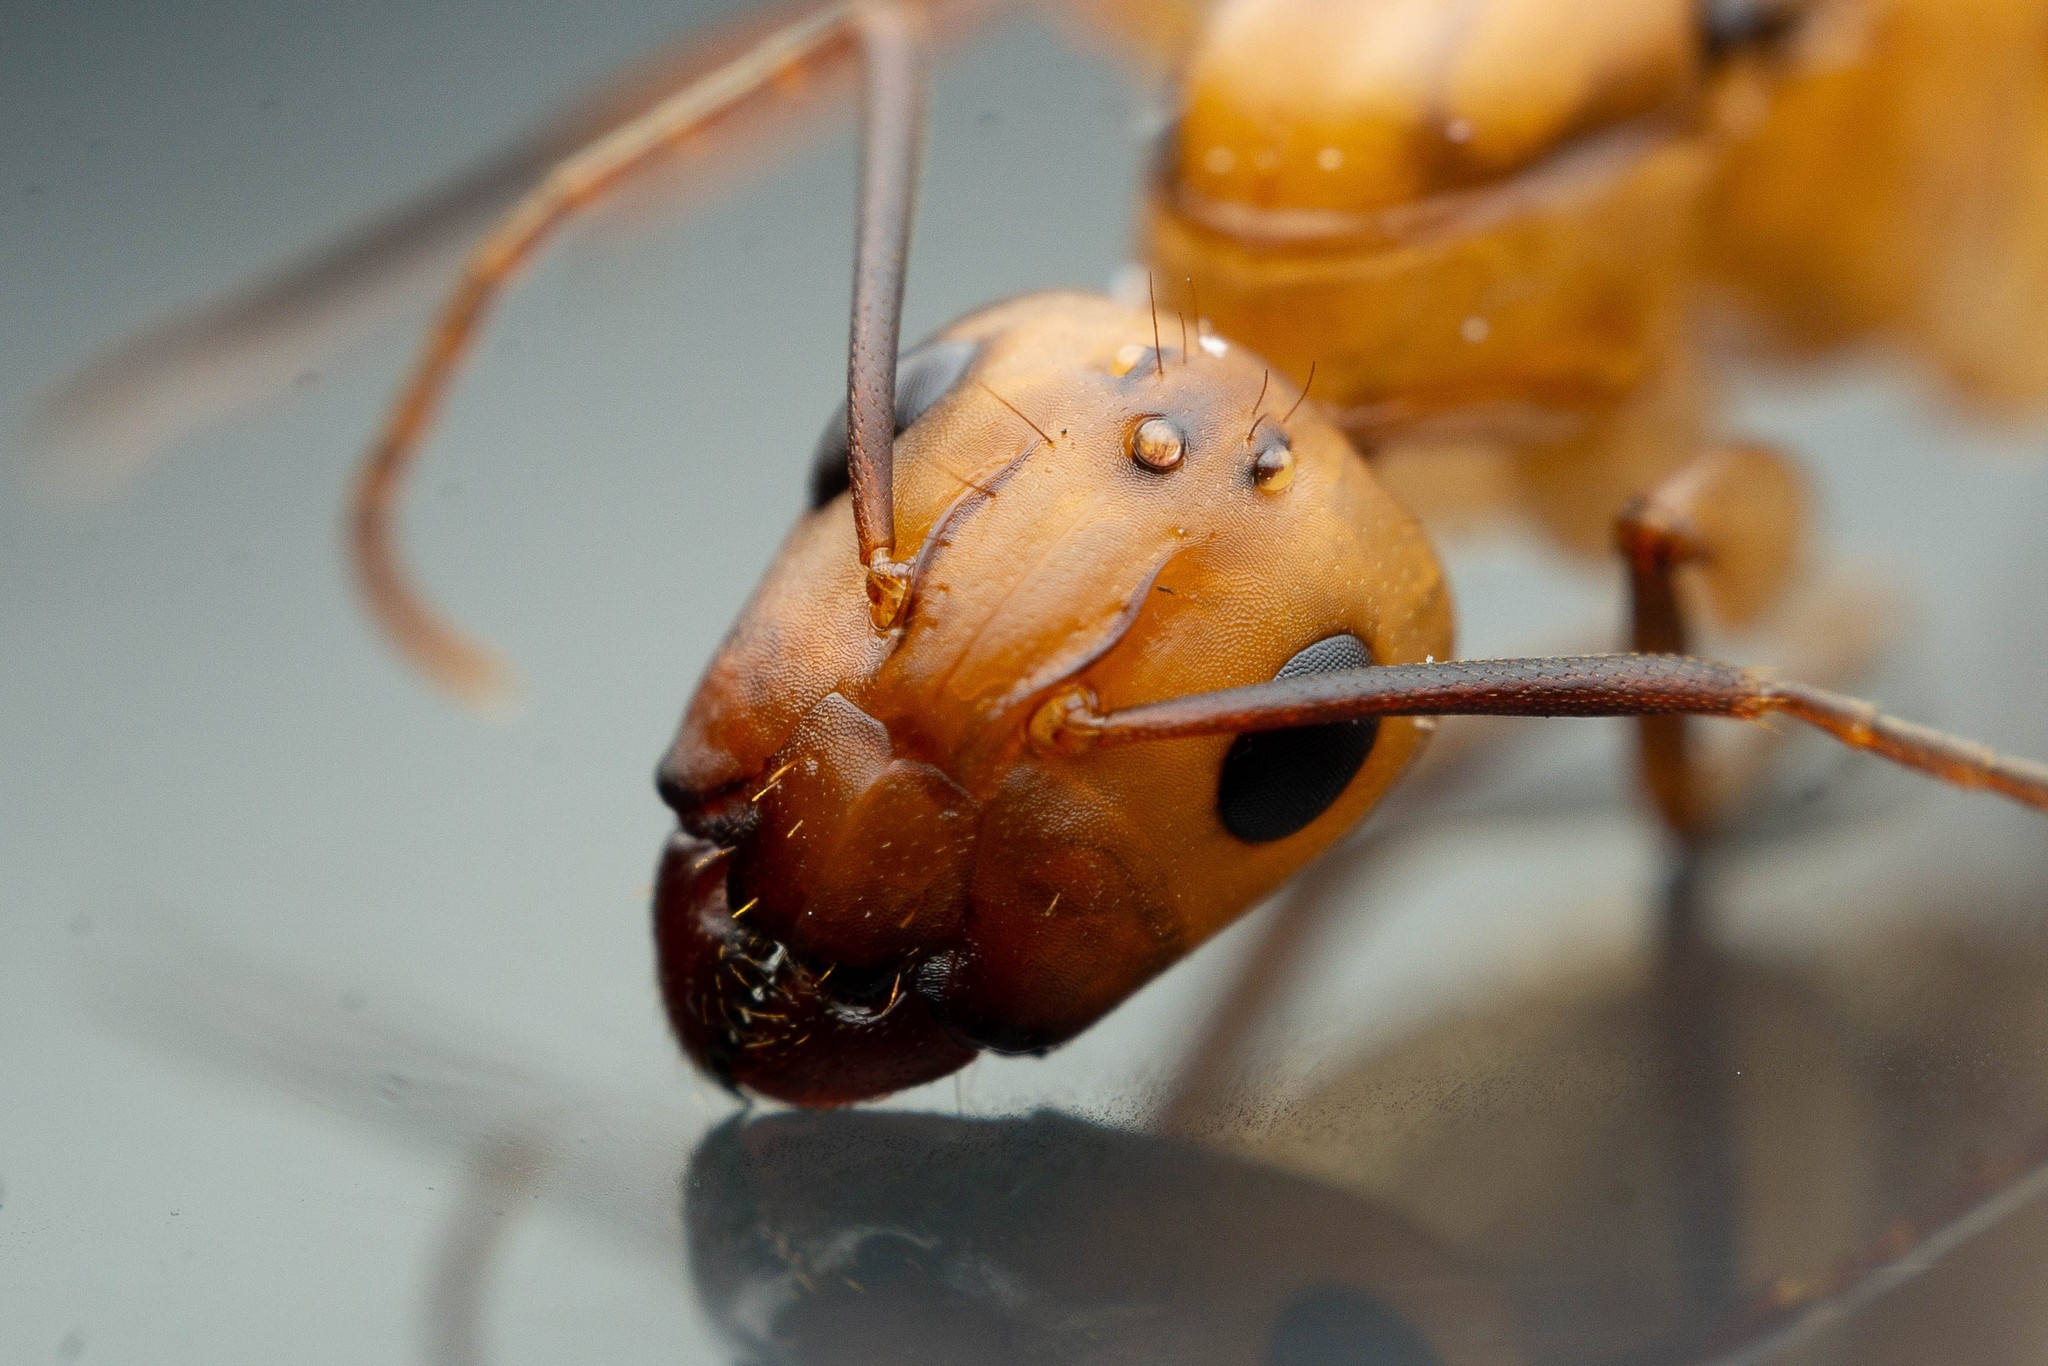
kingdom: Animalia
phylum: Arthropoda
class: Insecta
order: Hymenoptera
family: Formicidae
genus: Camponotus
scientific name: Camponotus variegatus
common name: Hawaiian carpenter ant
